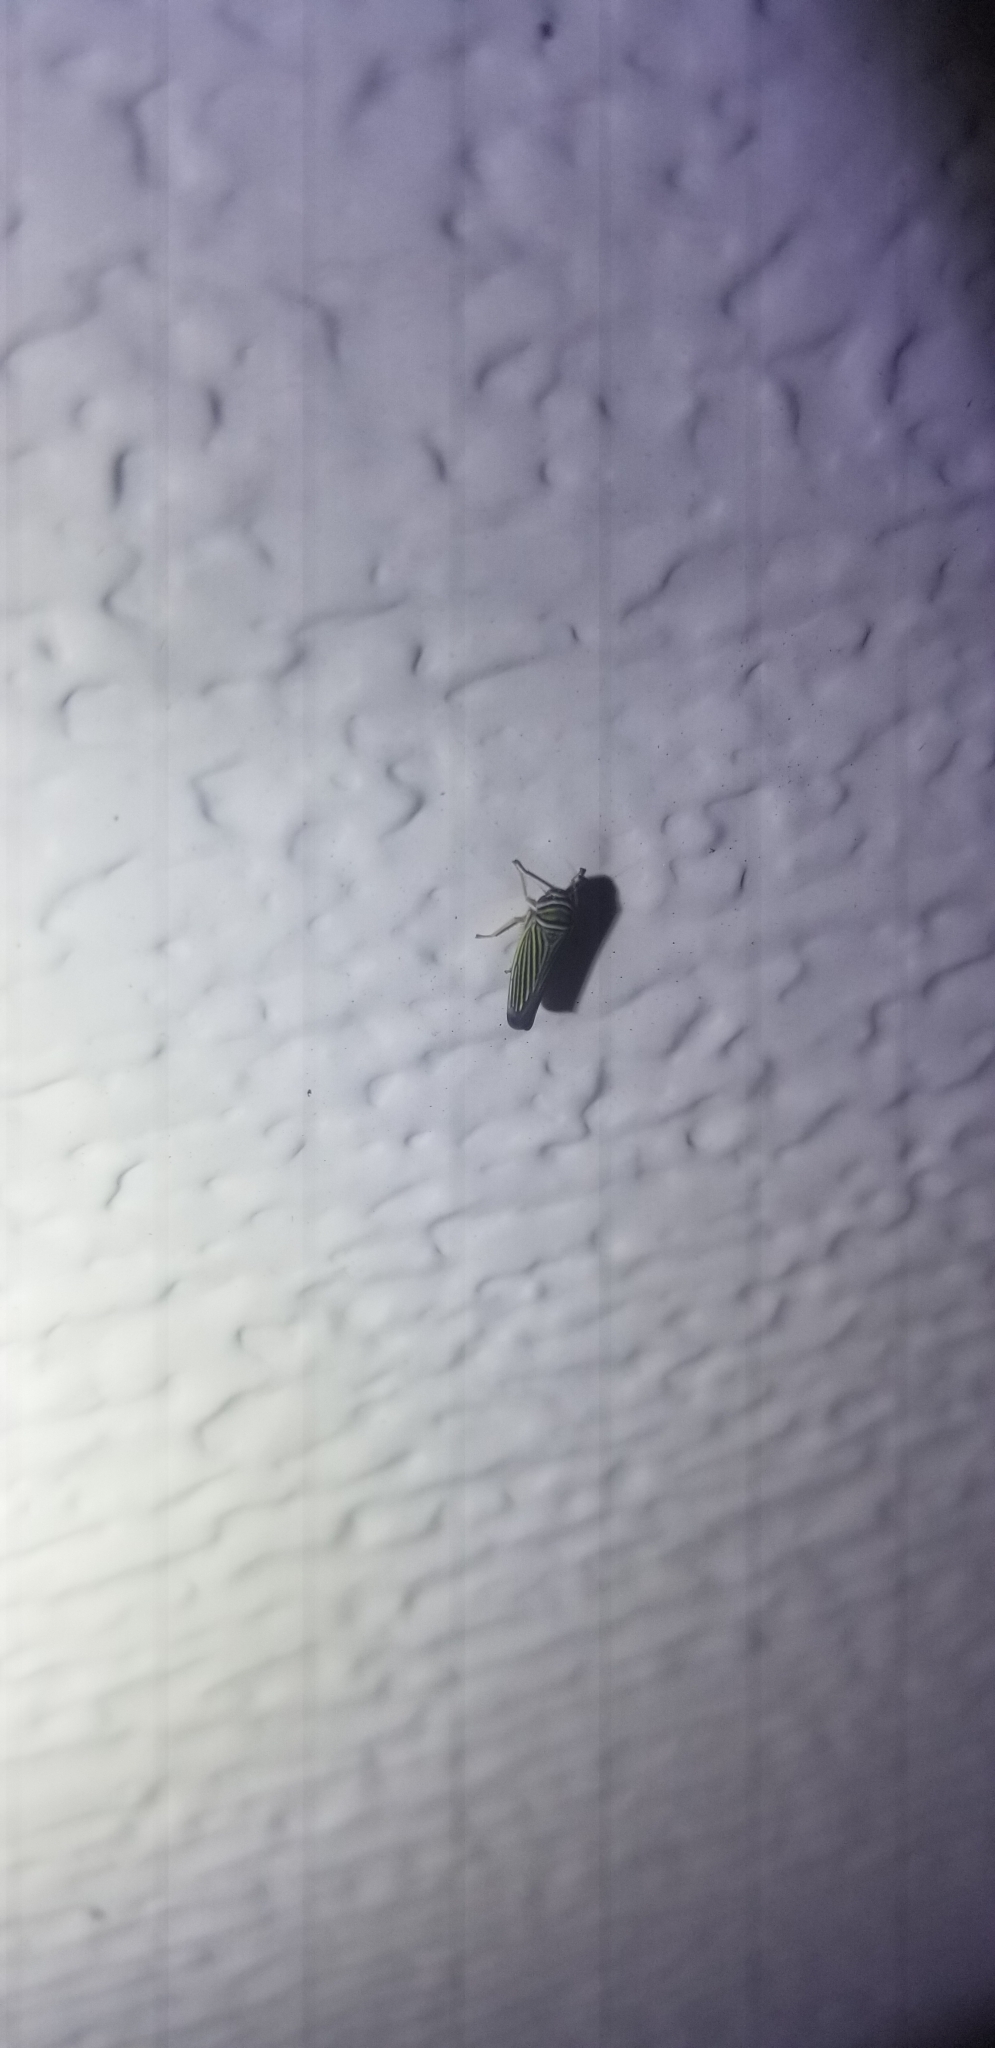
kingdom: Animalia
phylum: Arthropoda
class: Insecta
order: Hemiptera
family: Cicadellidae
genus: Tylozygus
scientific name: Tylozygus bifidus
